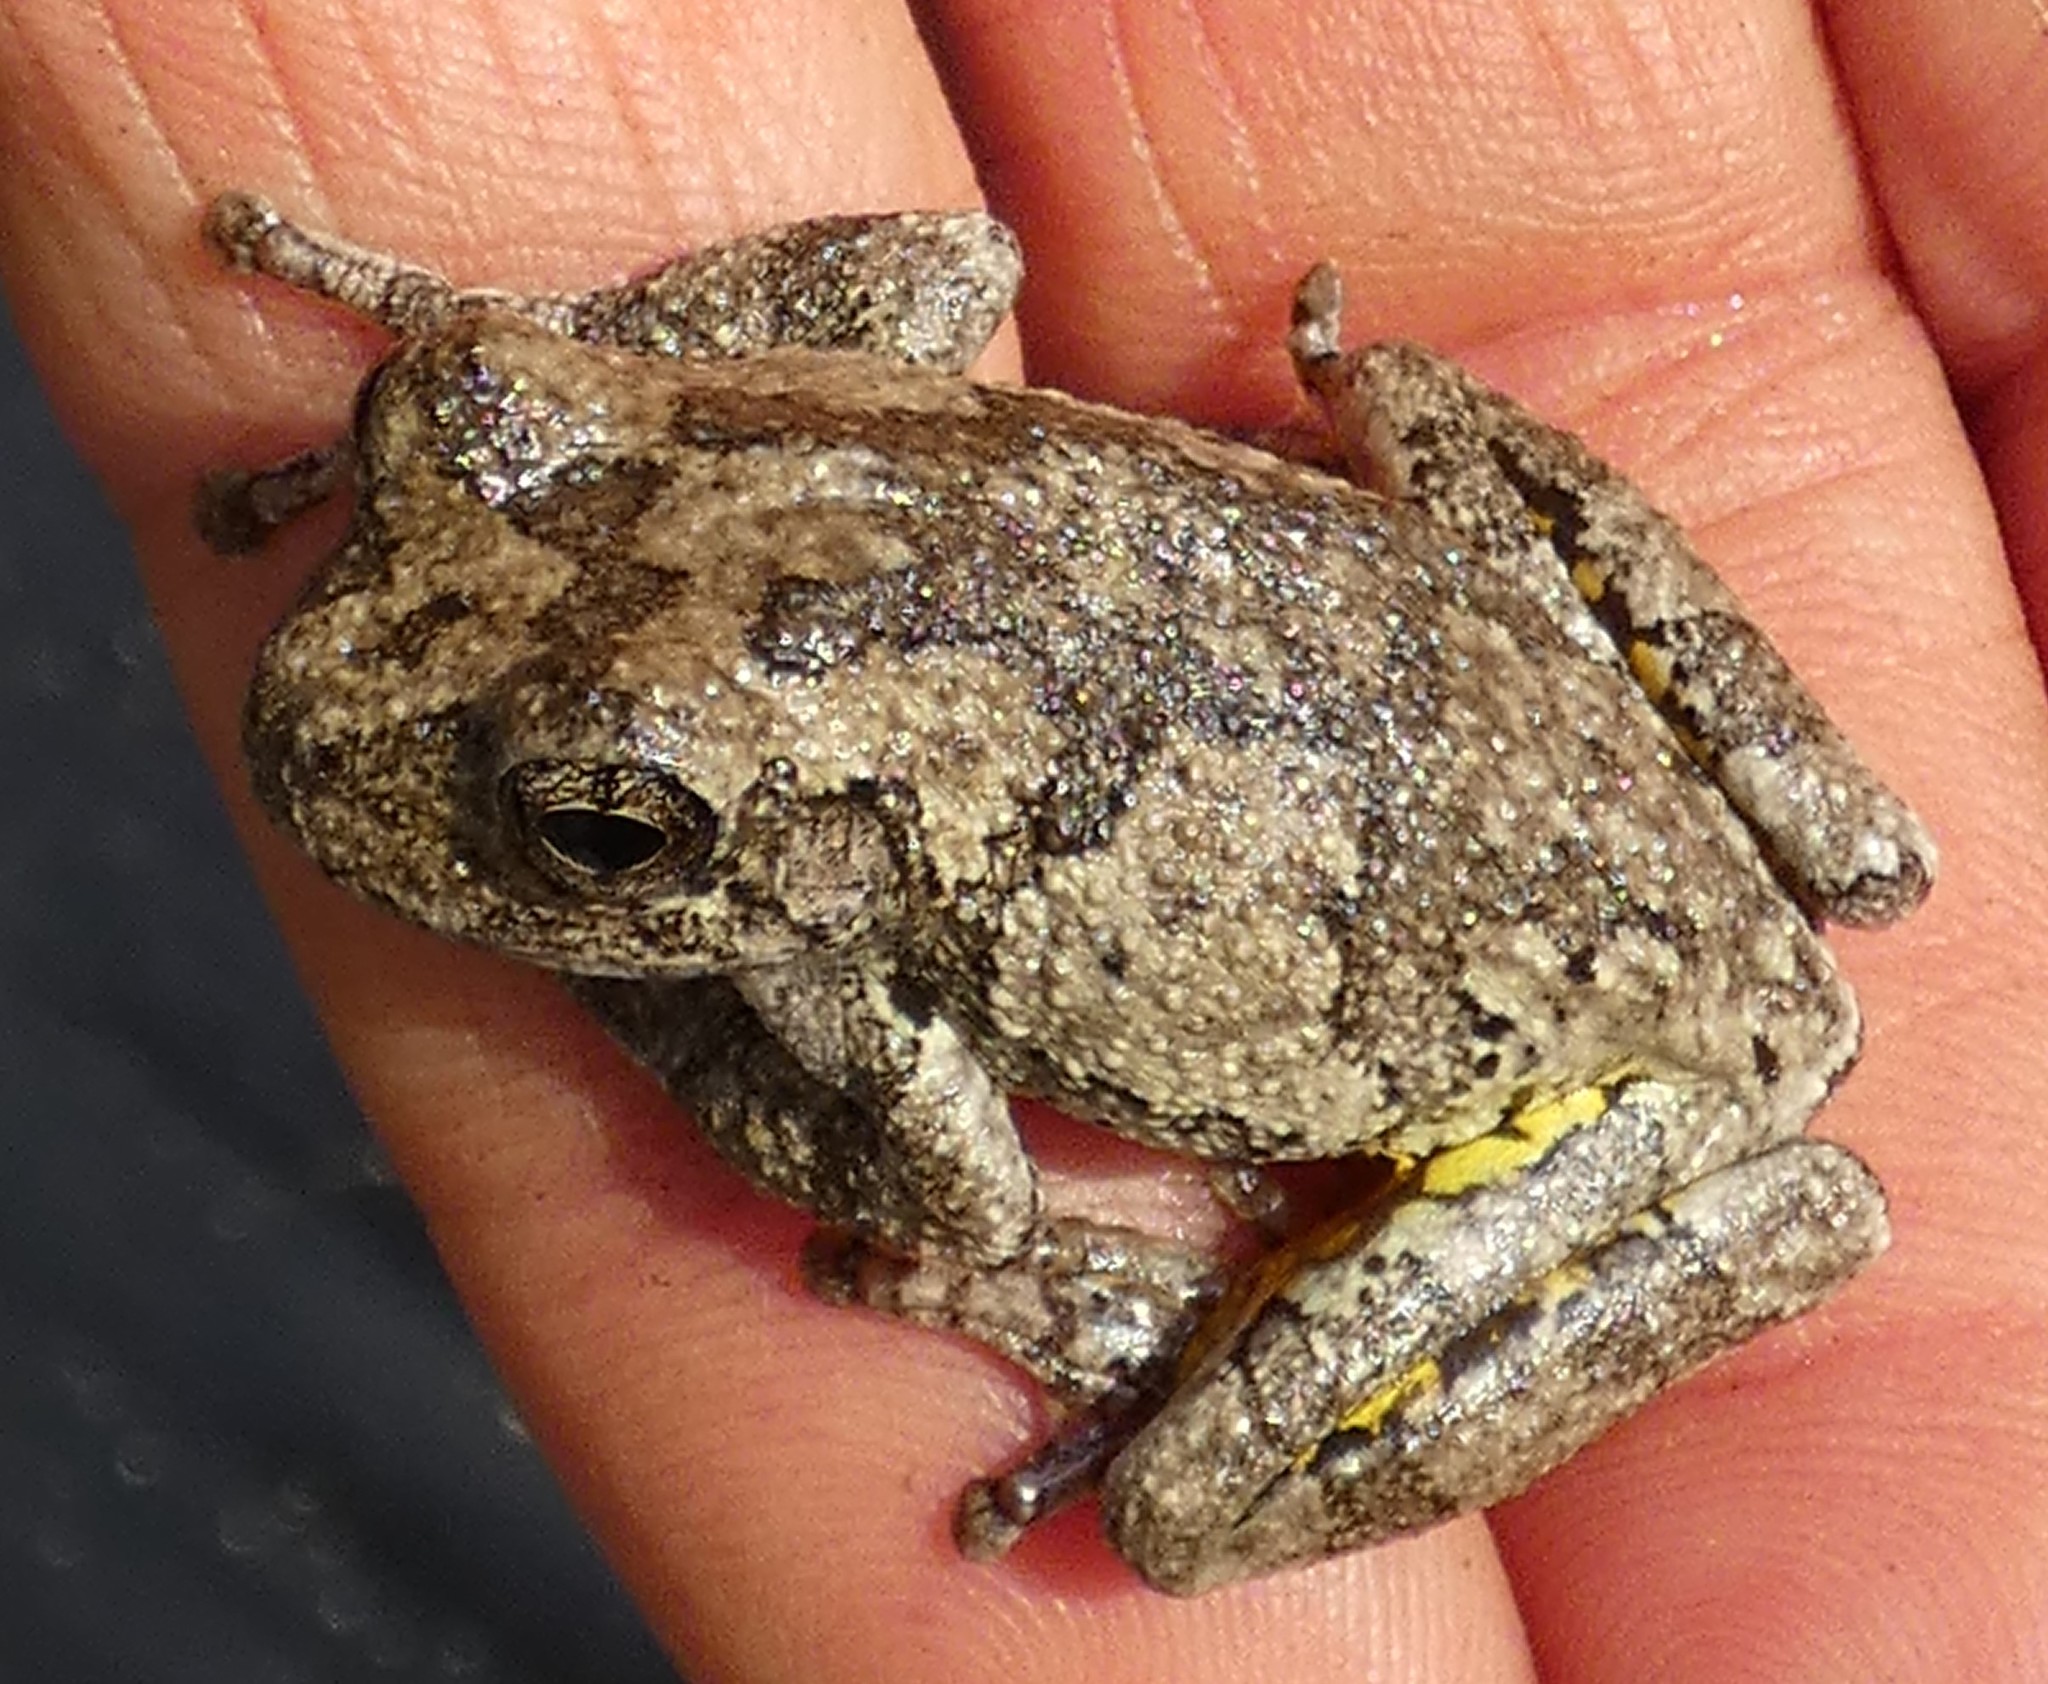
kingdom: Animalia
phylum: Chordata
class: Amphibia
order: Anura
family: Hylidae
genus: Dryophytes
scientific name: Dryophytes chrysoscelis
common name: Cope's gray treefrog
